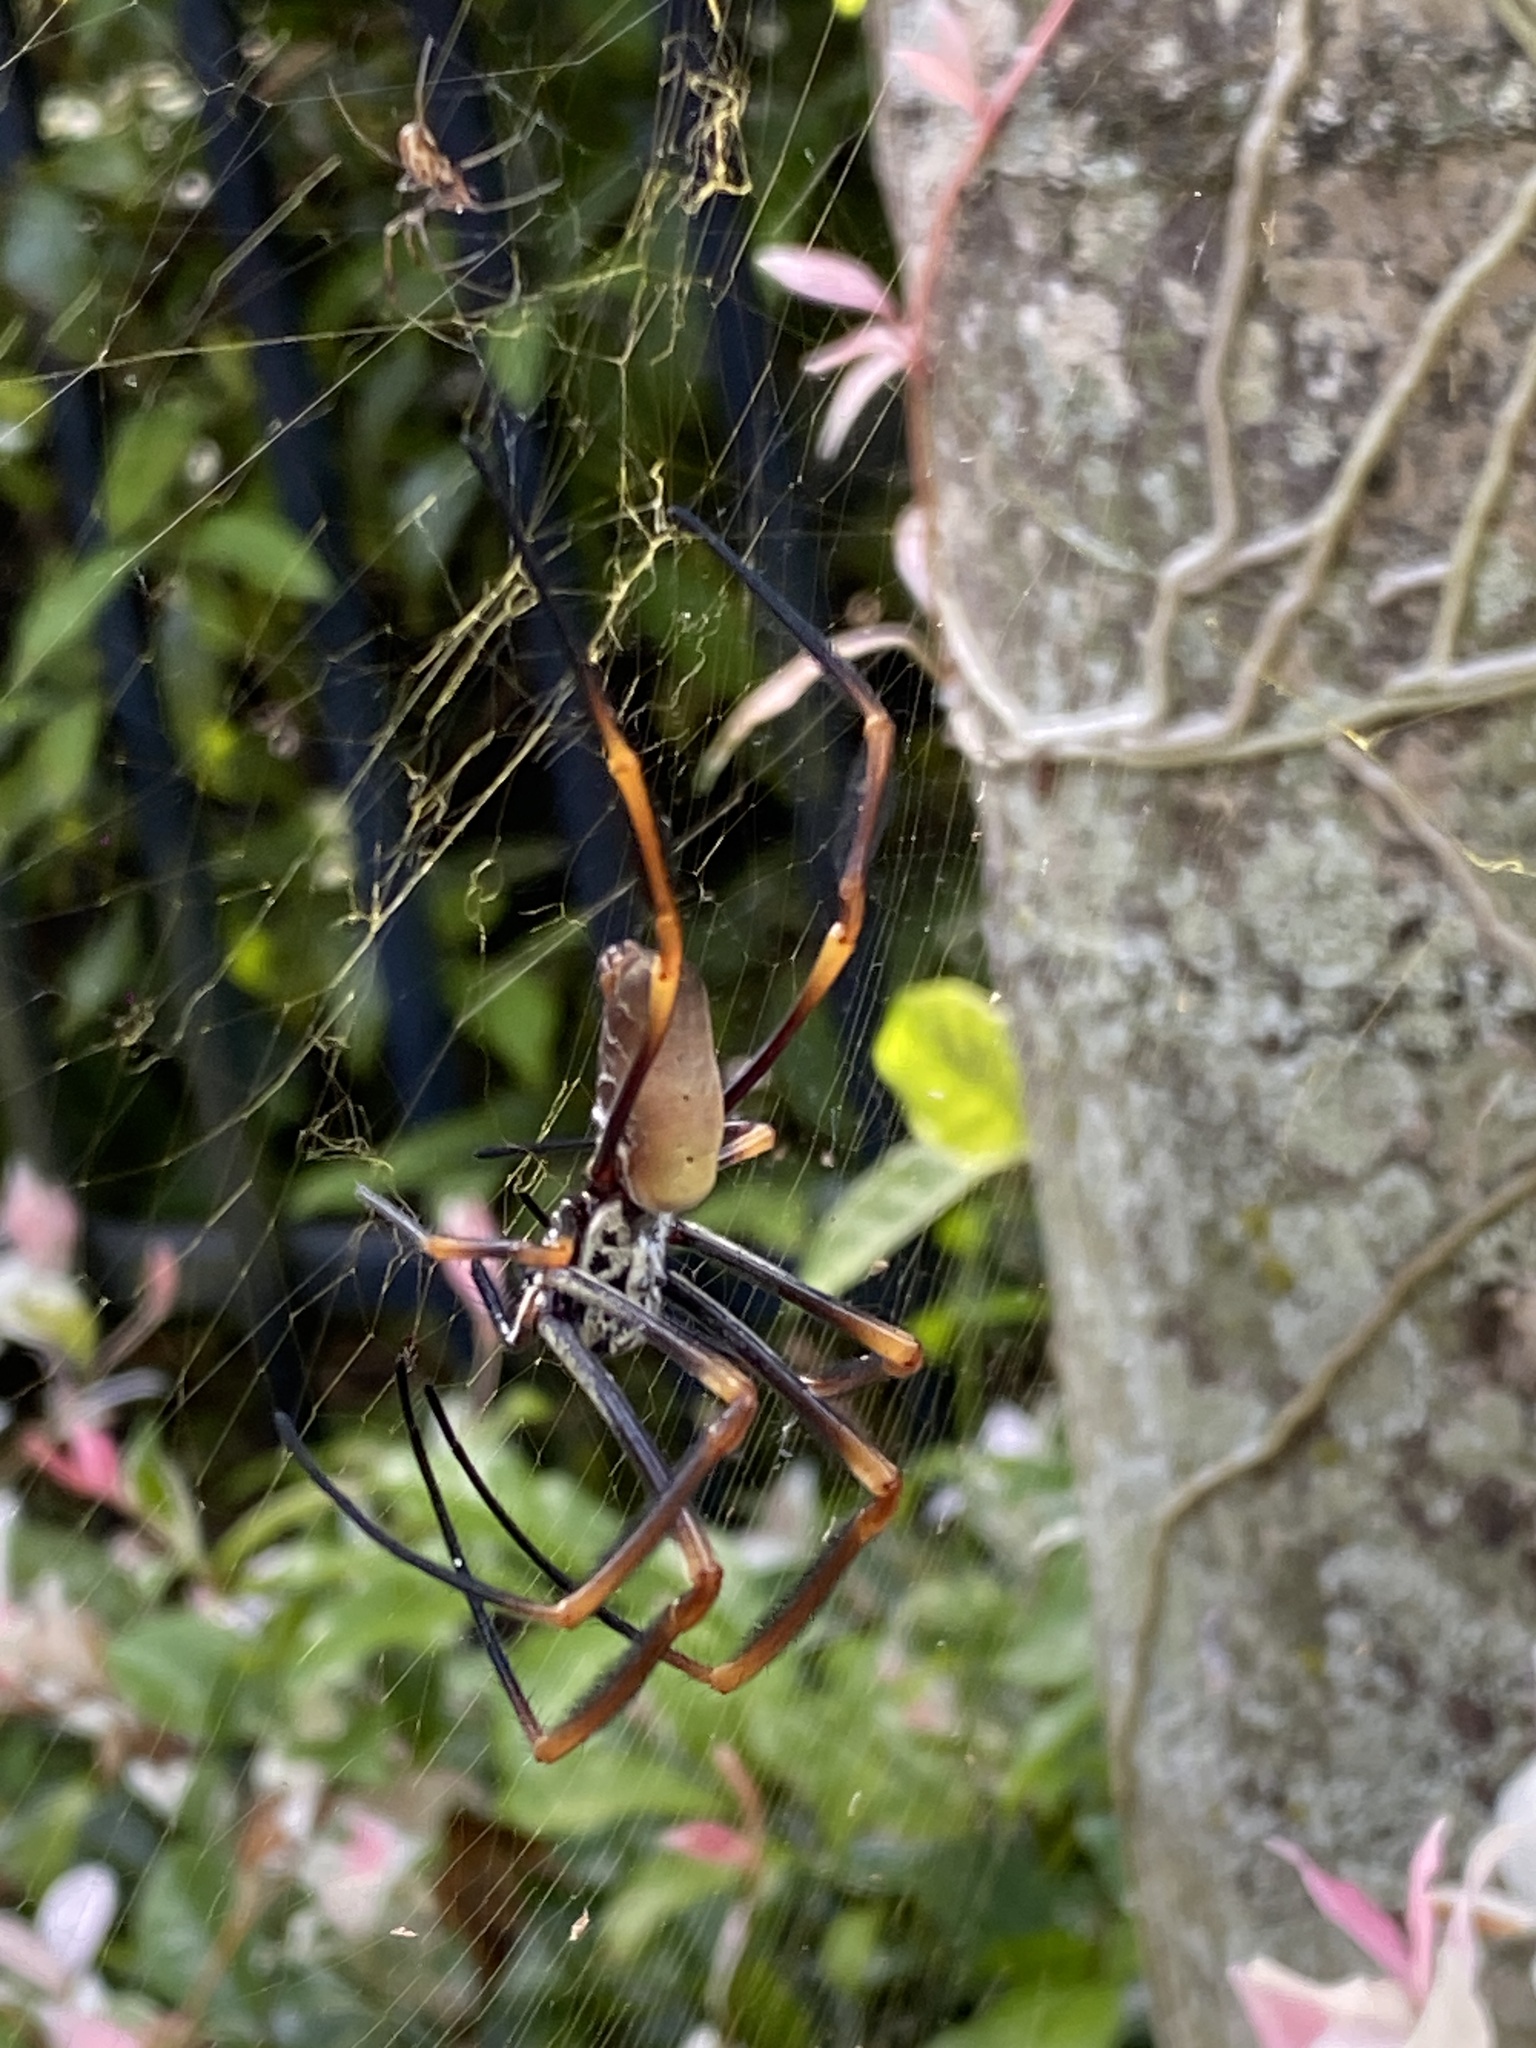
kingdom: Animalia
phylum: Arthropoda
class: Arachnida
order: Araneae
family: Araneidae
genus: Trichonephila
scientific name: Trichonephila plumipes
